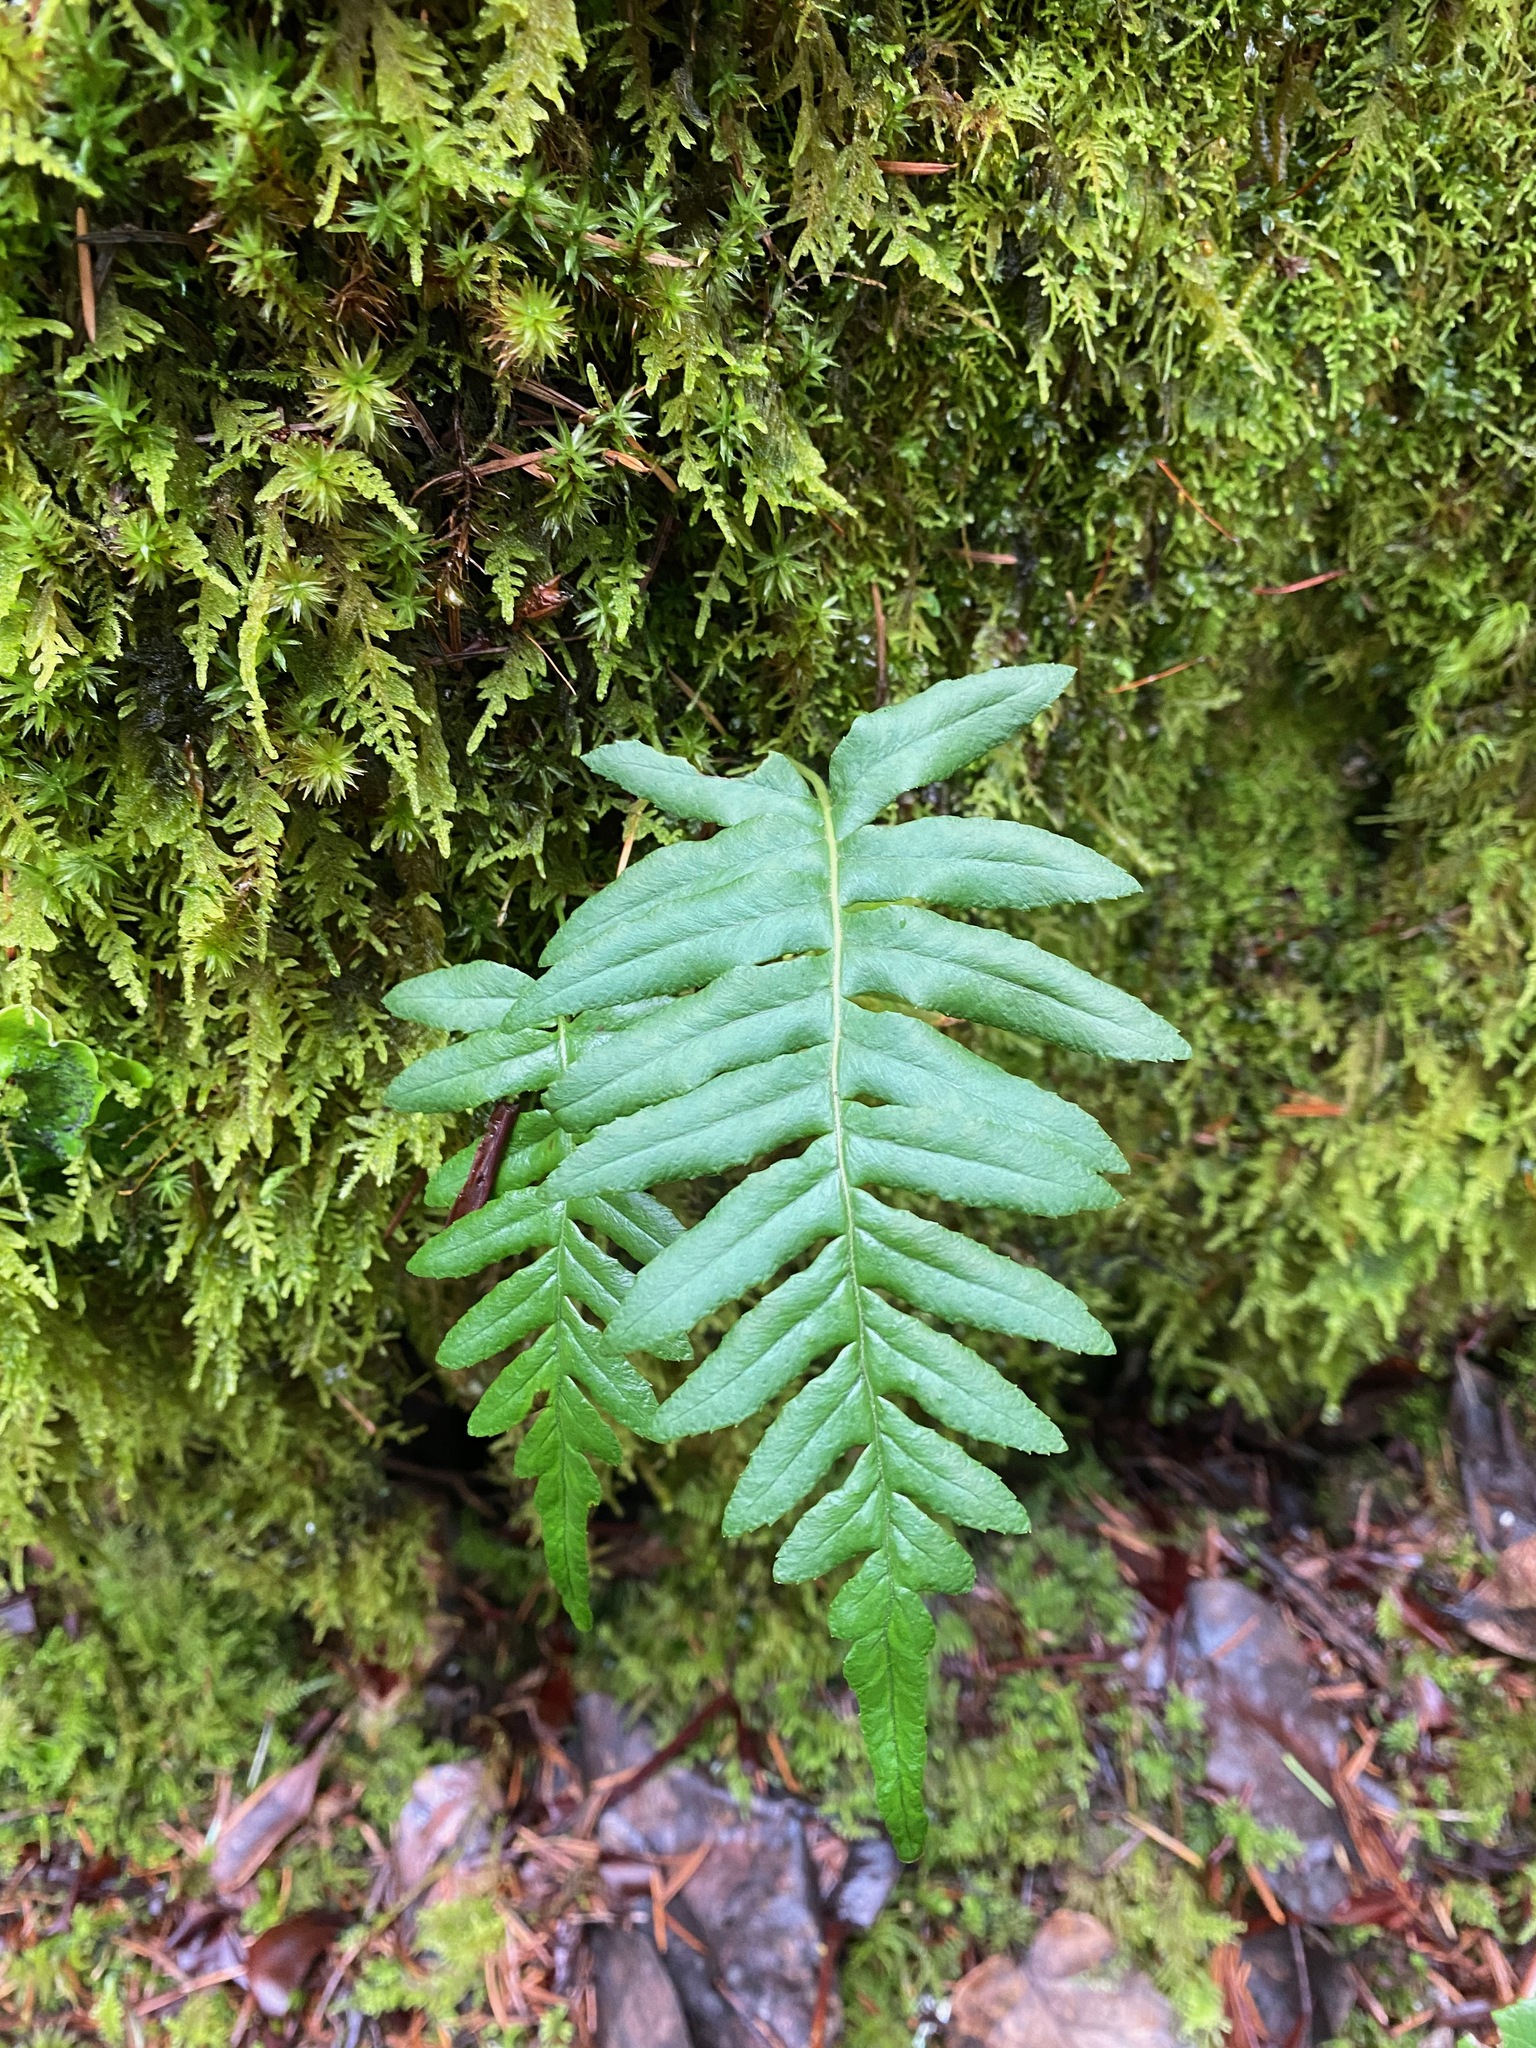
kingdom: Plantae
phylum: Tracheophyta
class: Polypodiopsida
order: Polypodiales
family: Polypodiaceae
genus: Polypodium
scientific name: Polypodium glycyrrhiza
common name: Licorice fern
